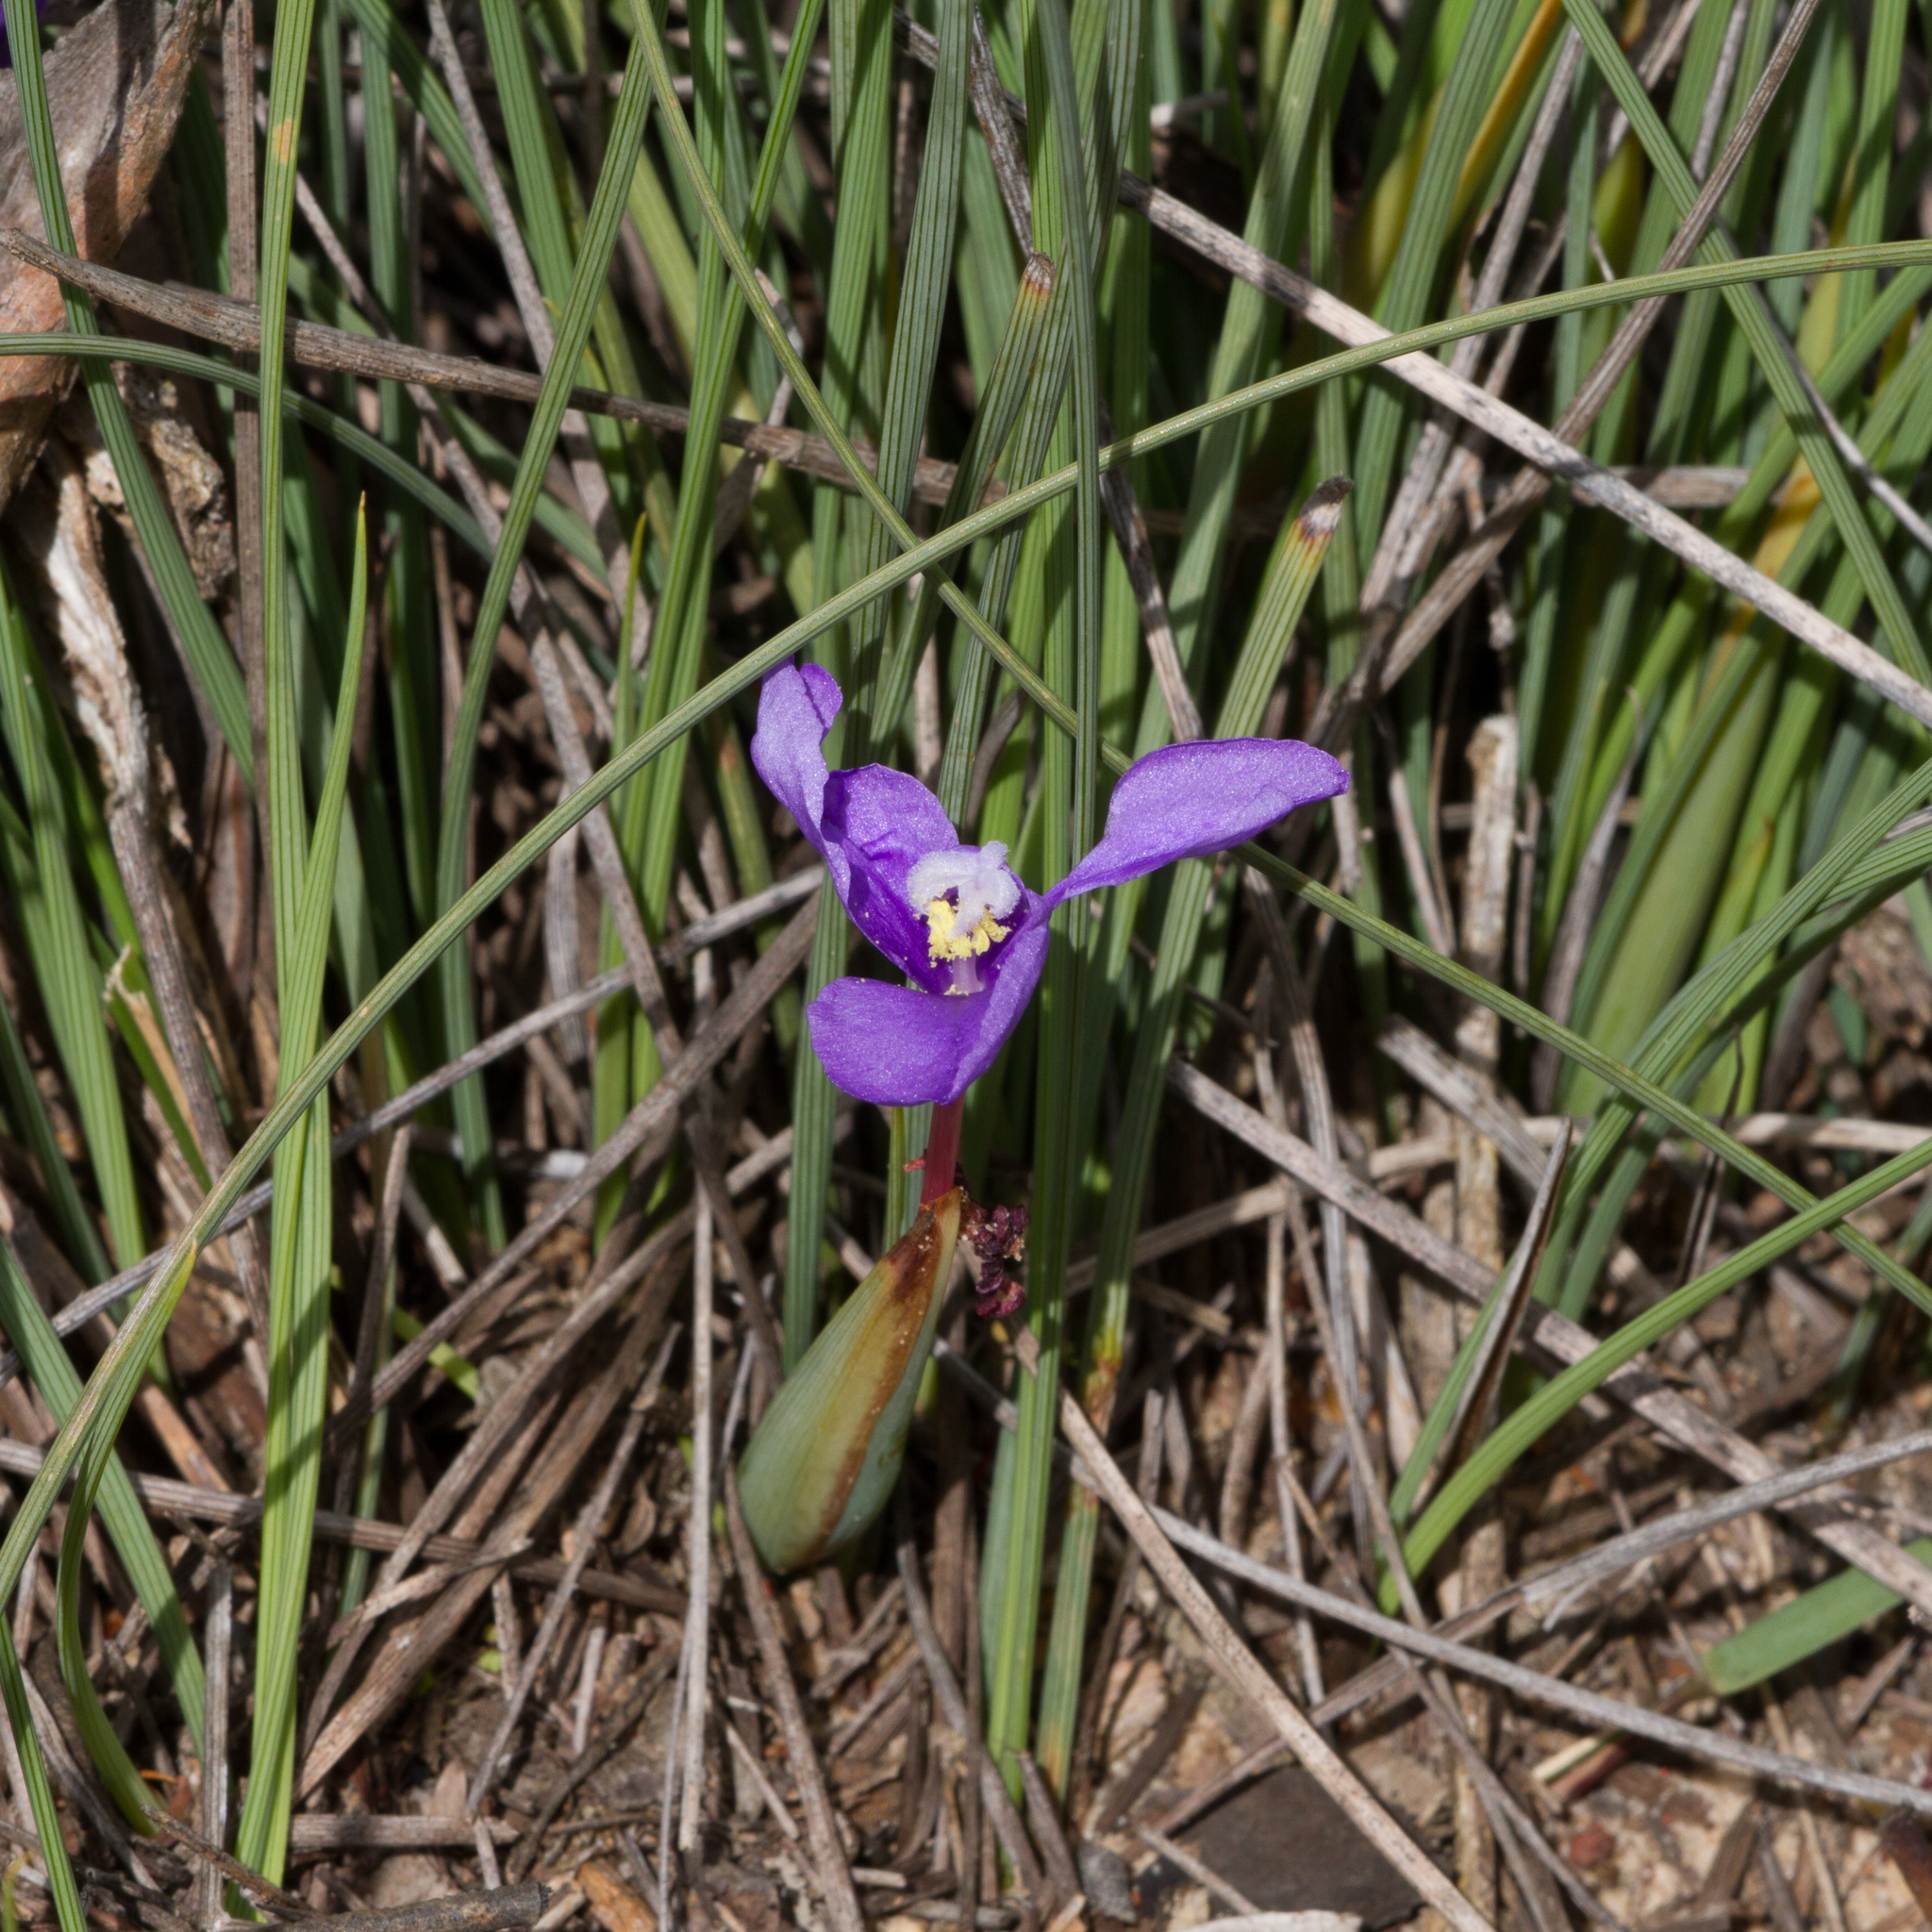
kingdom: Plantae
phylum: Tracheophyta
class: Liliopsida
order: Asparagales
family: Iridaceae
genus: Patersonia
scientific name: Patersonia fragilis
